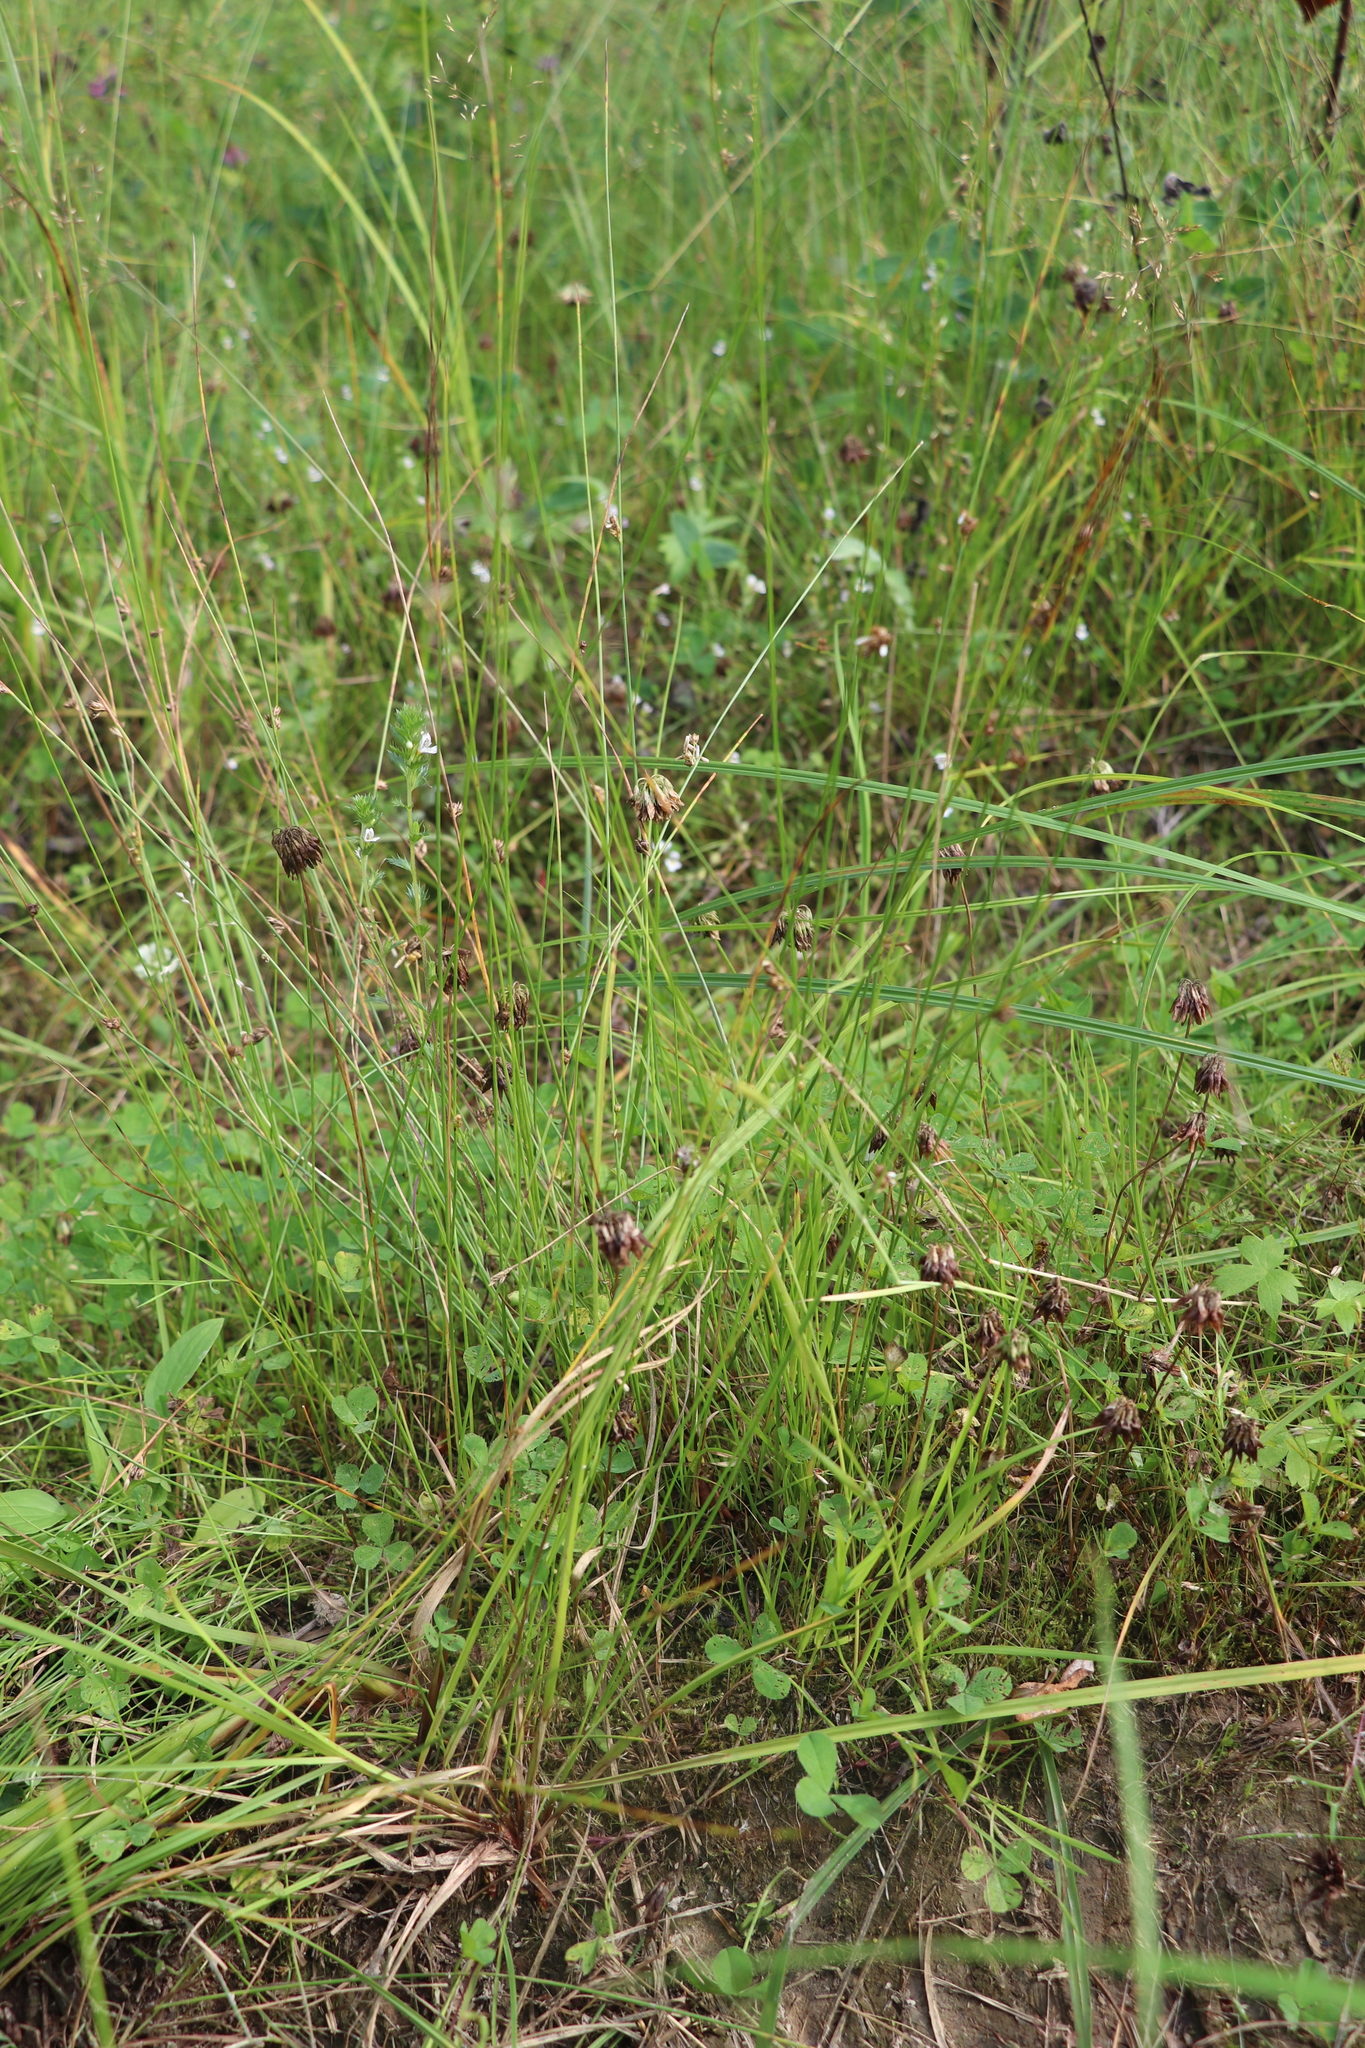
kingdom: Plantae
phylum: Tracheophyta
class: Liliopsida
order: Poales
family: Juncaceae
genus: Juncus
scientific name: Juncus filiformis
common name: Thread rush
